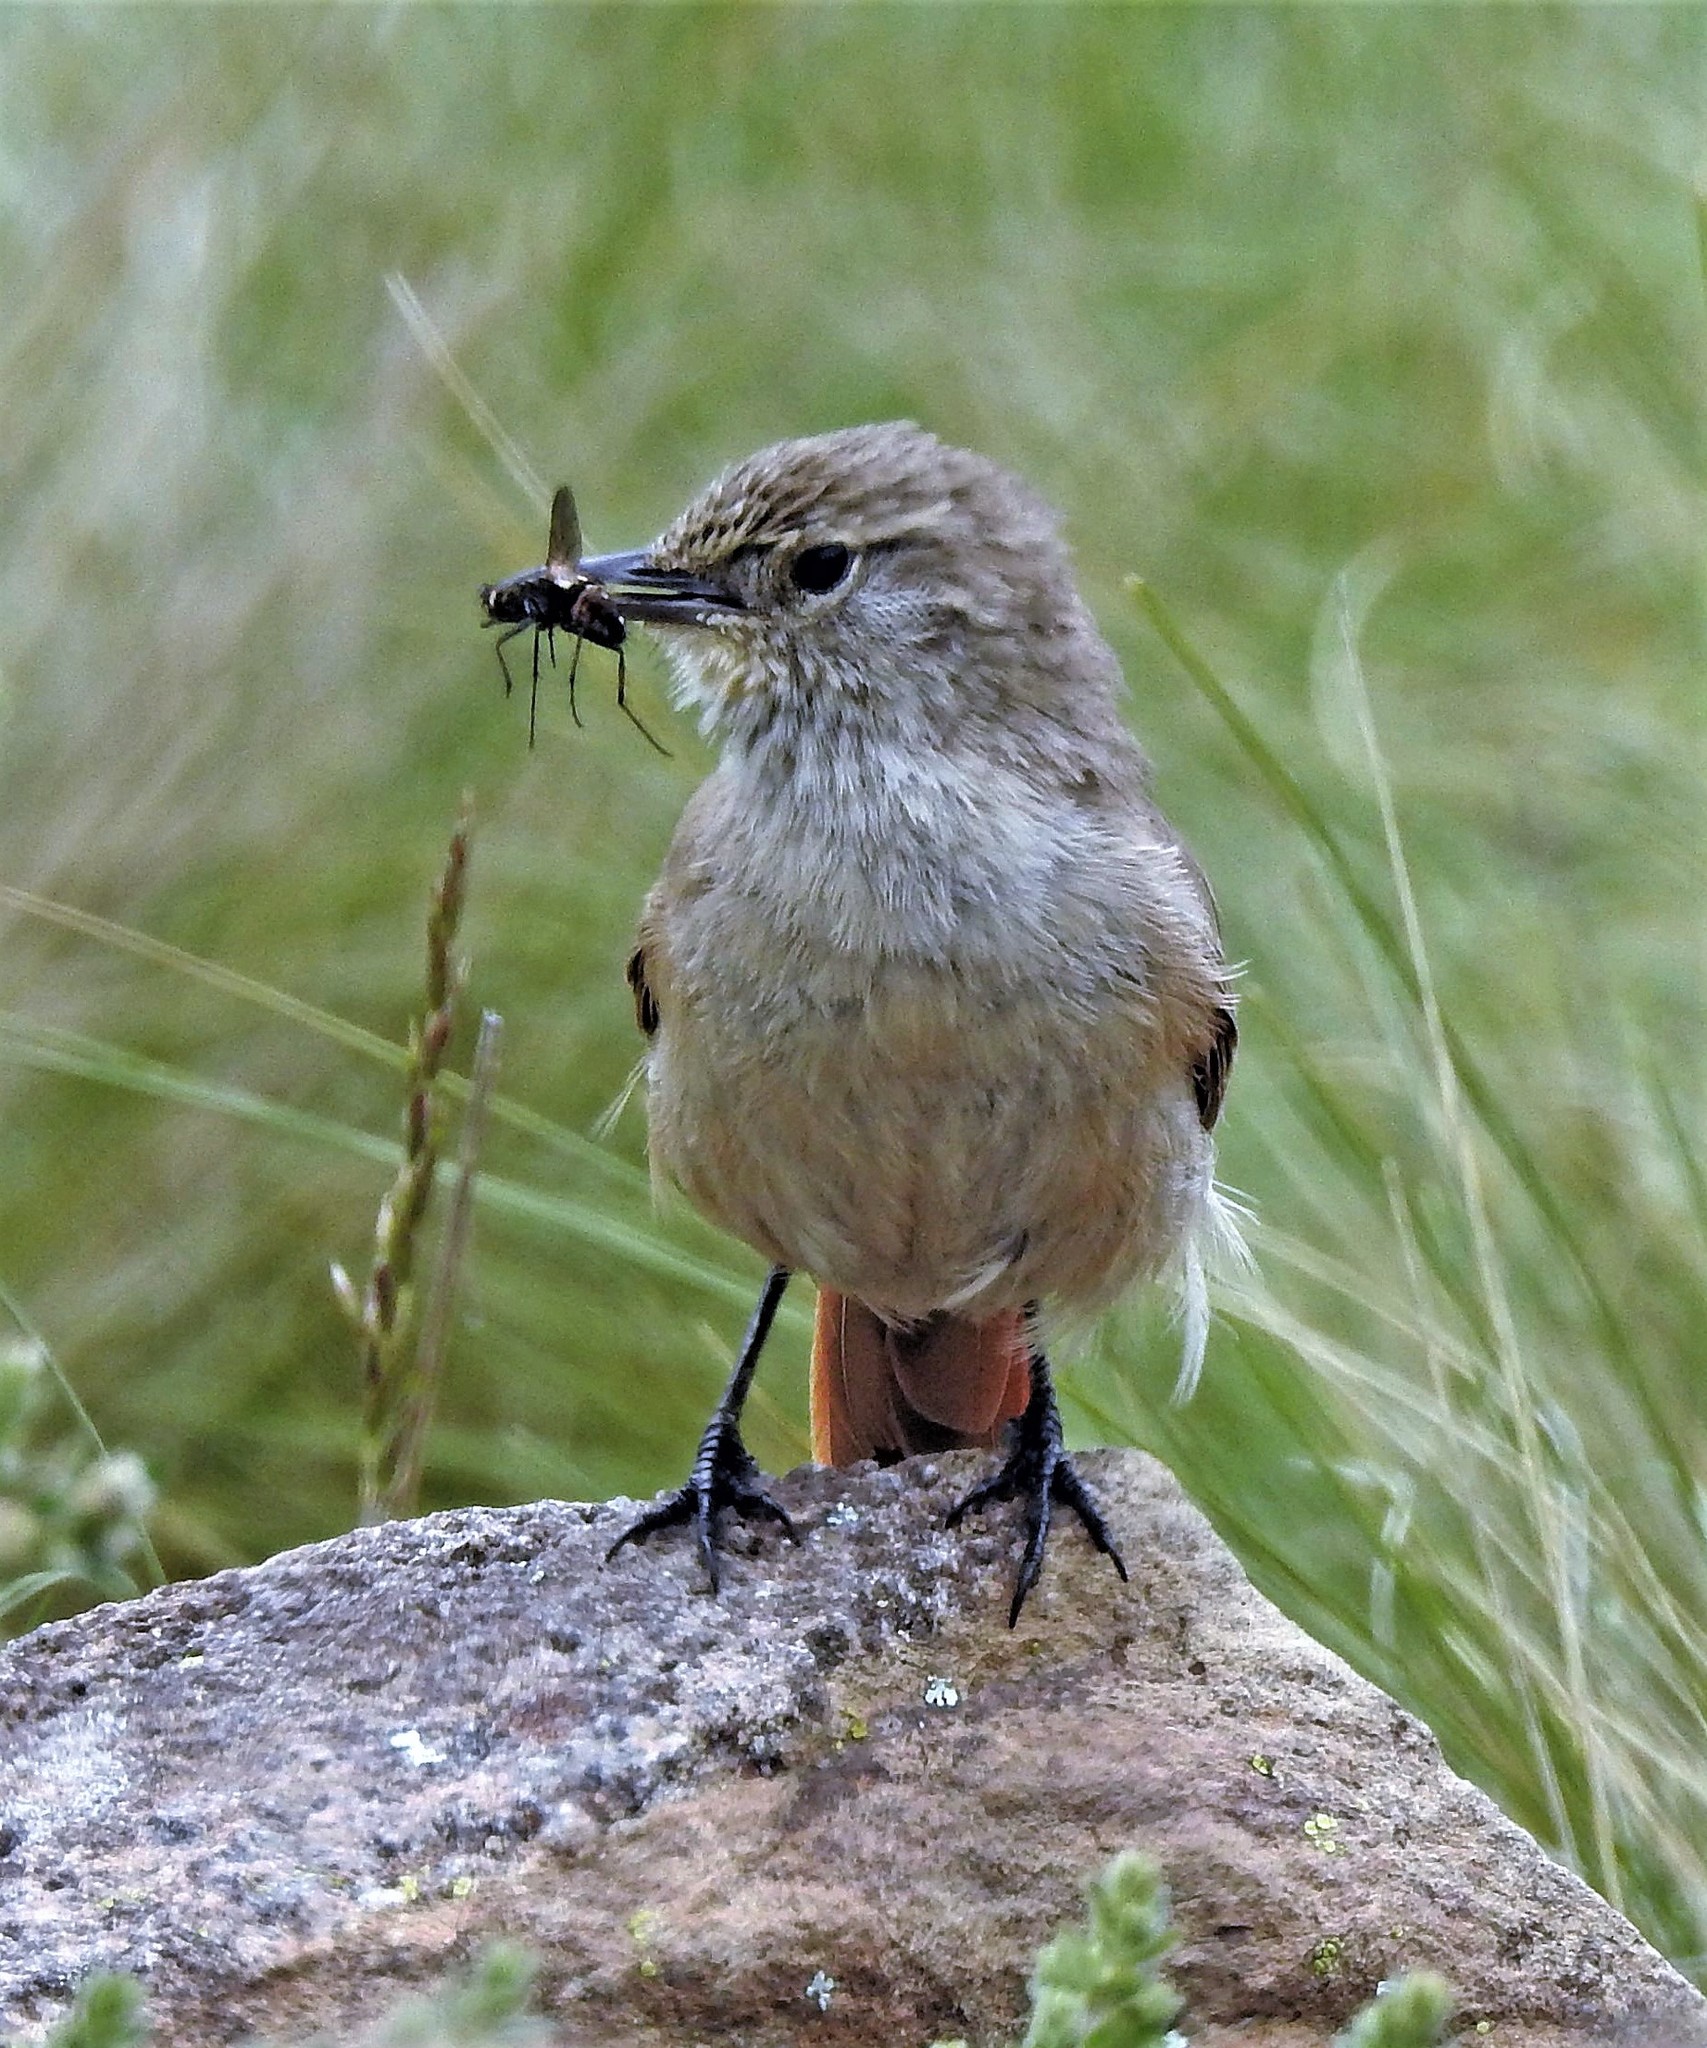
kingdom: Animalia
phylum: Chordata
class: Aves
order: Passeriformes
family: Furnariidae
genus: Asthenes
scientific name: Asthenes modesta
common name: Cordilleran canastero
